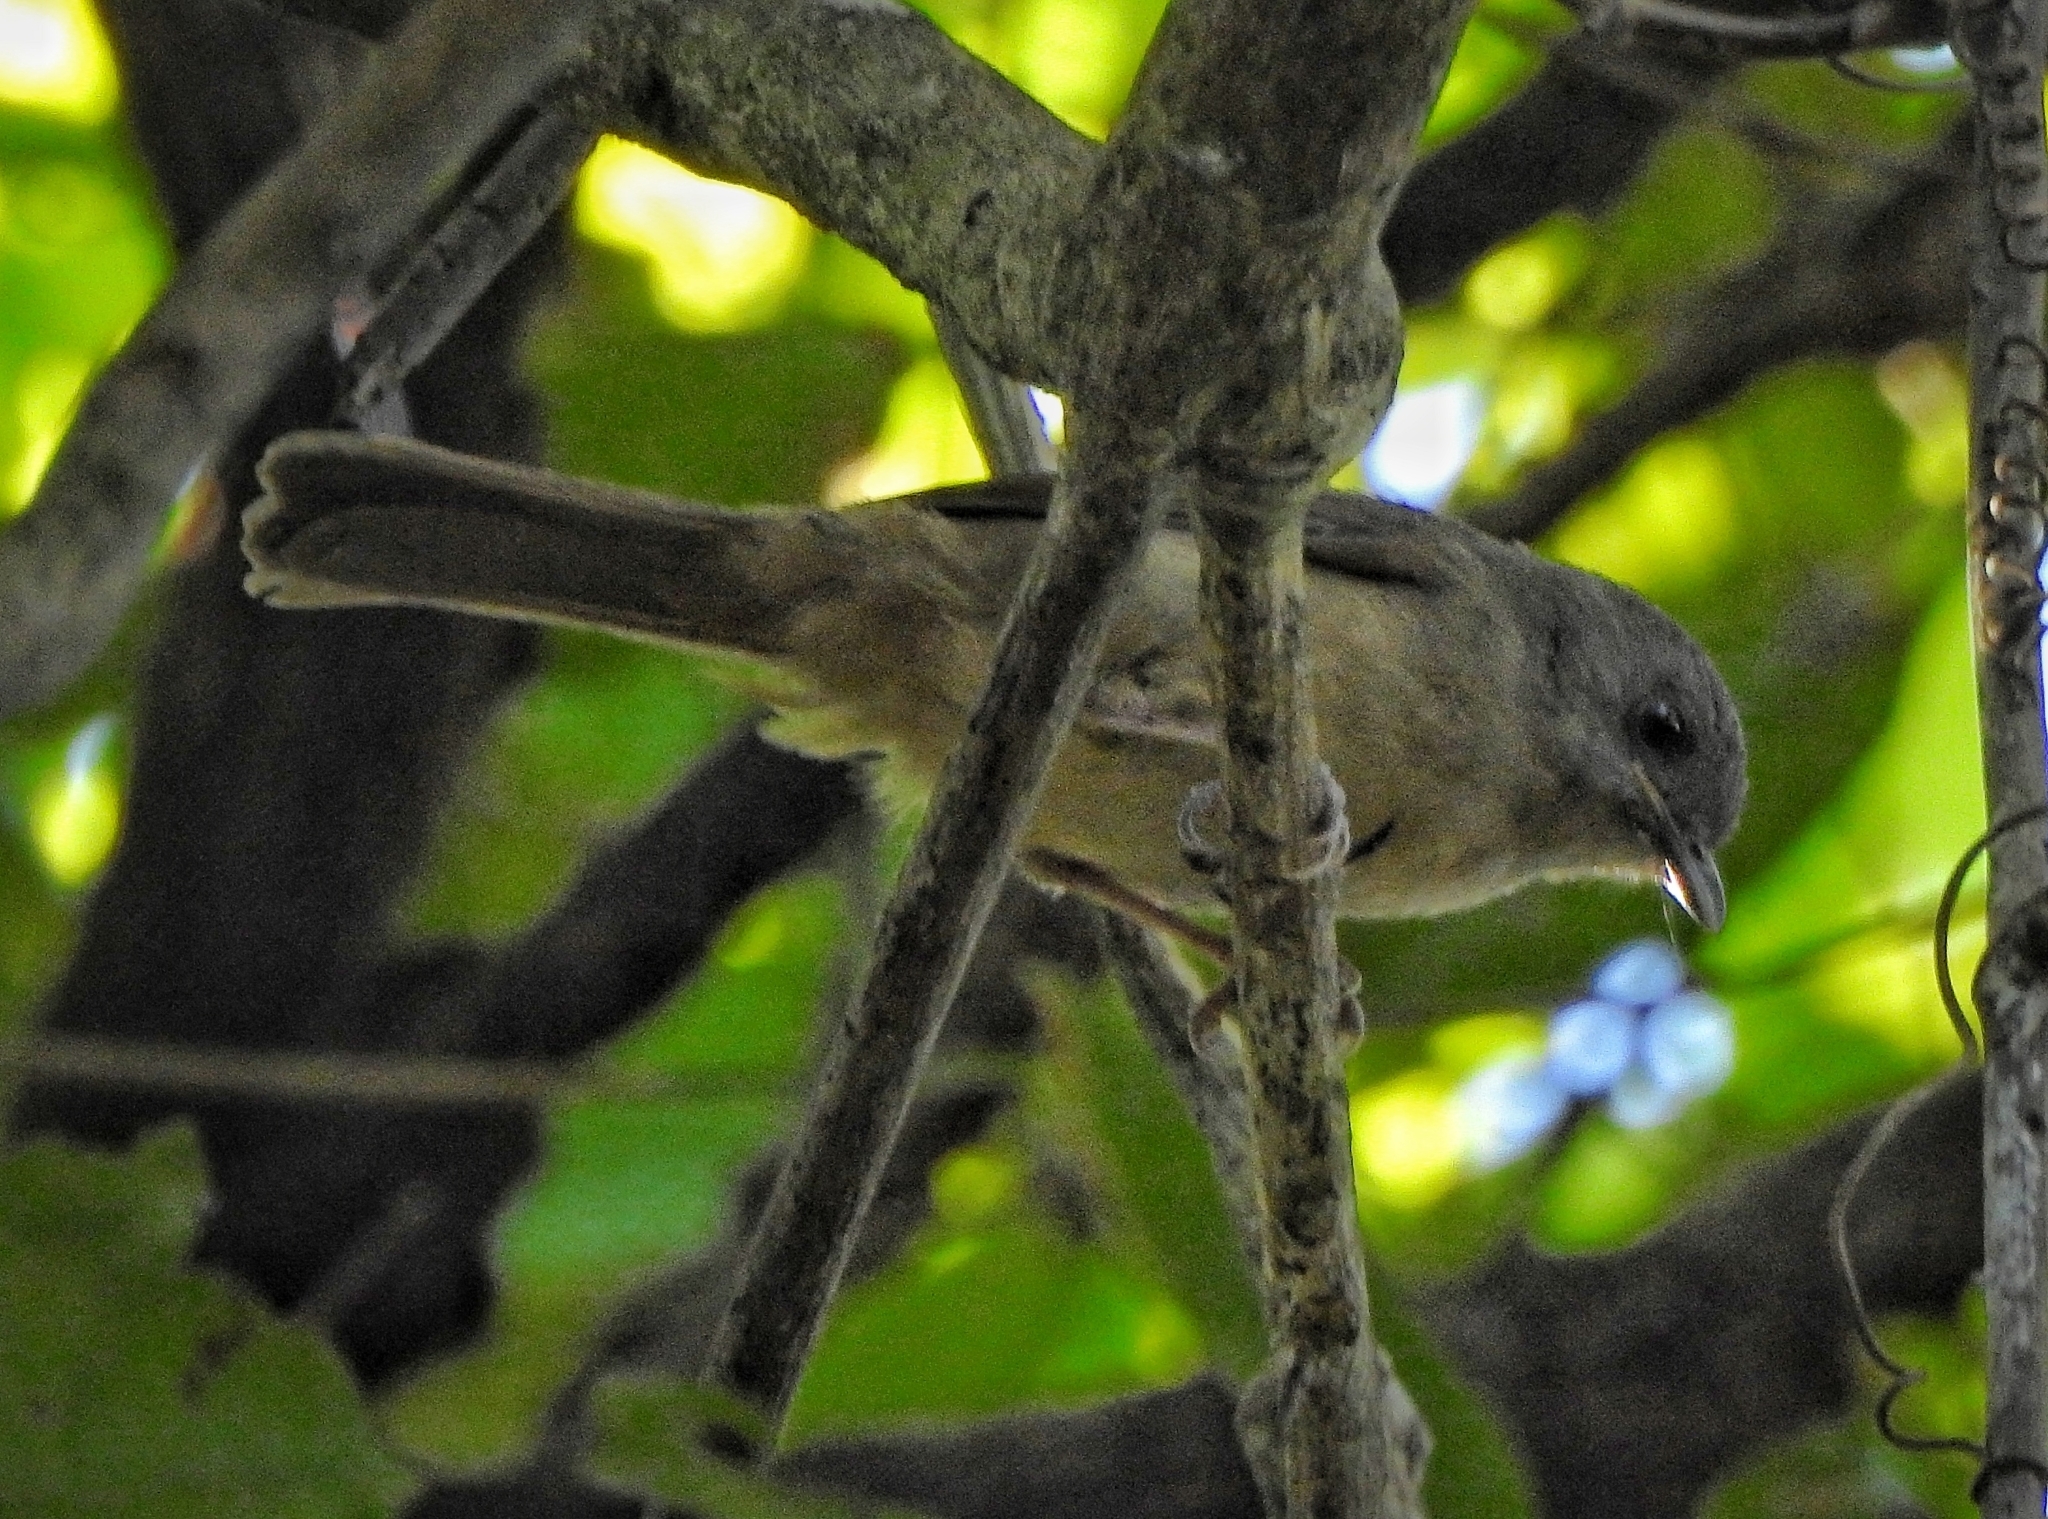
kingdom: Animalia
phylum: Chordata
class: Aves
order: Passeriformes
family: Pellorneidae
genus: Alcippe
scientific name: Alcippe poioicephala
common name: Brown-cheeked fulvetta
